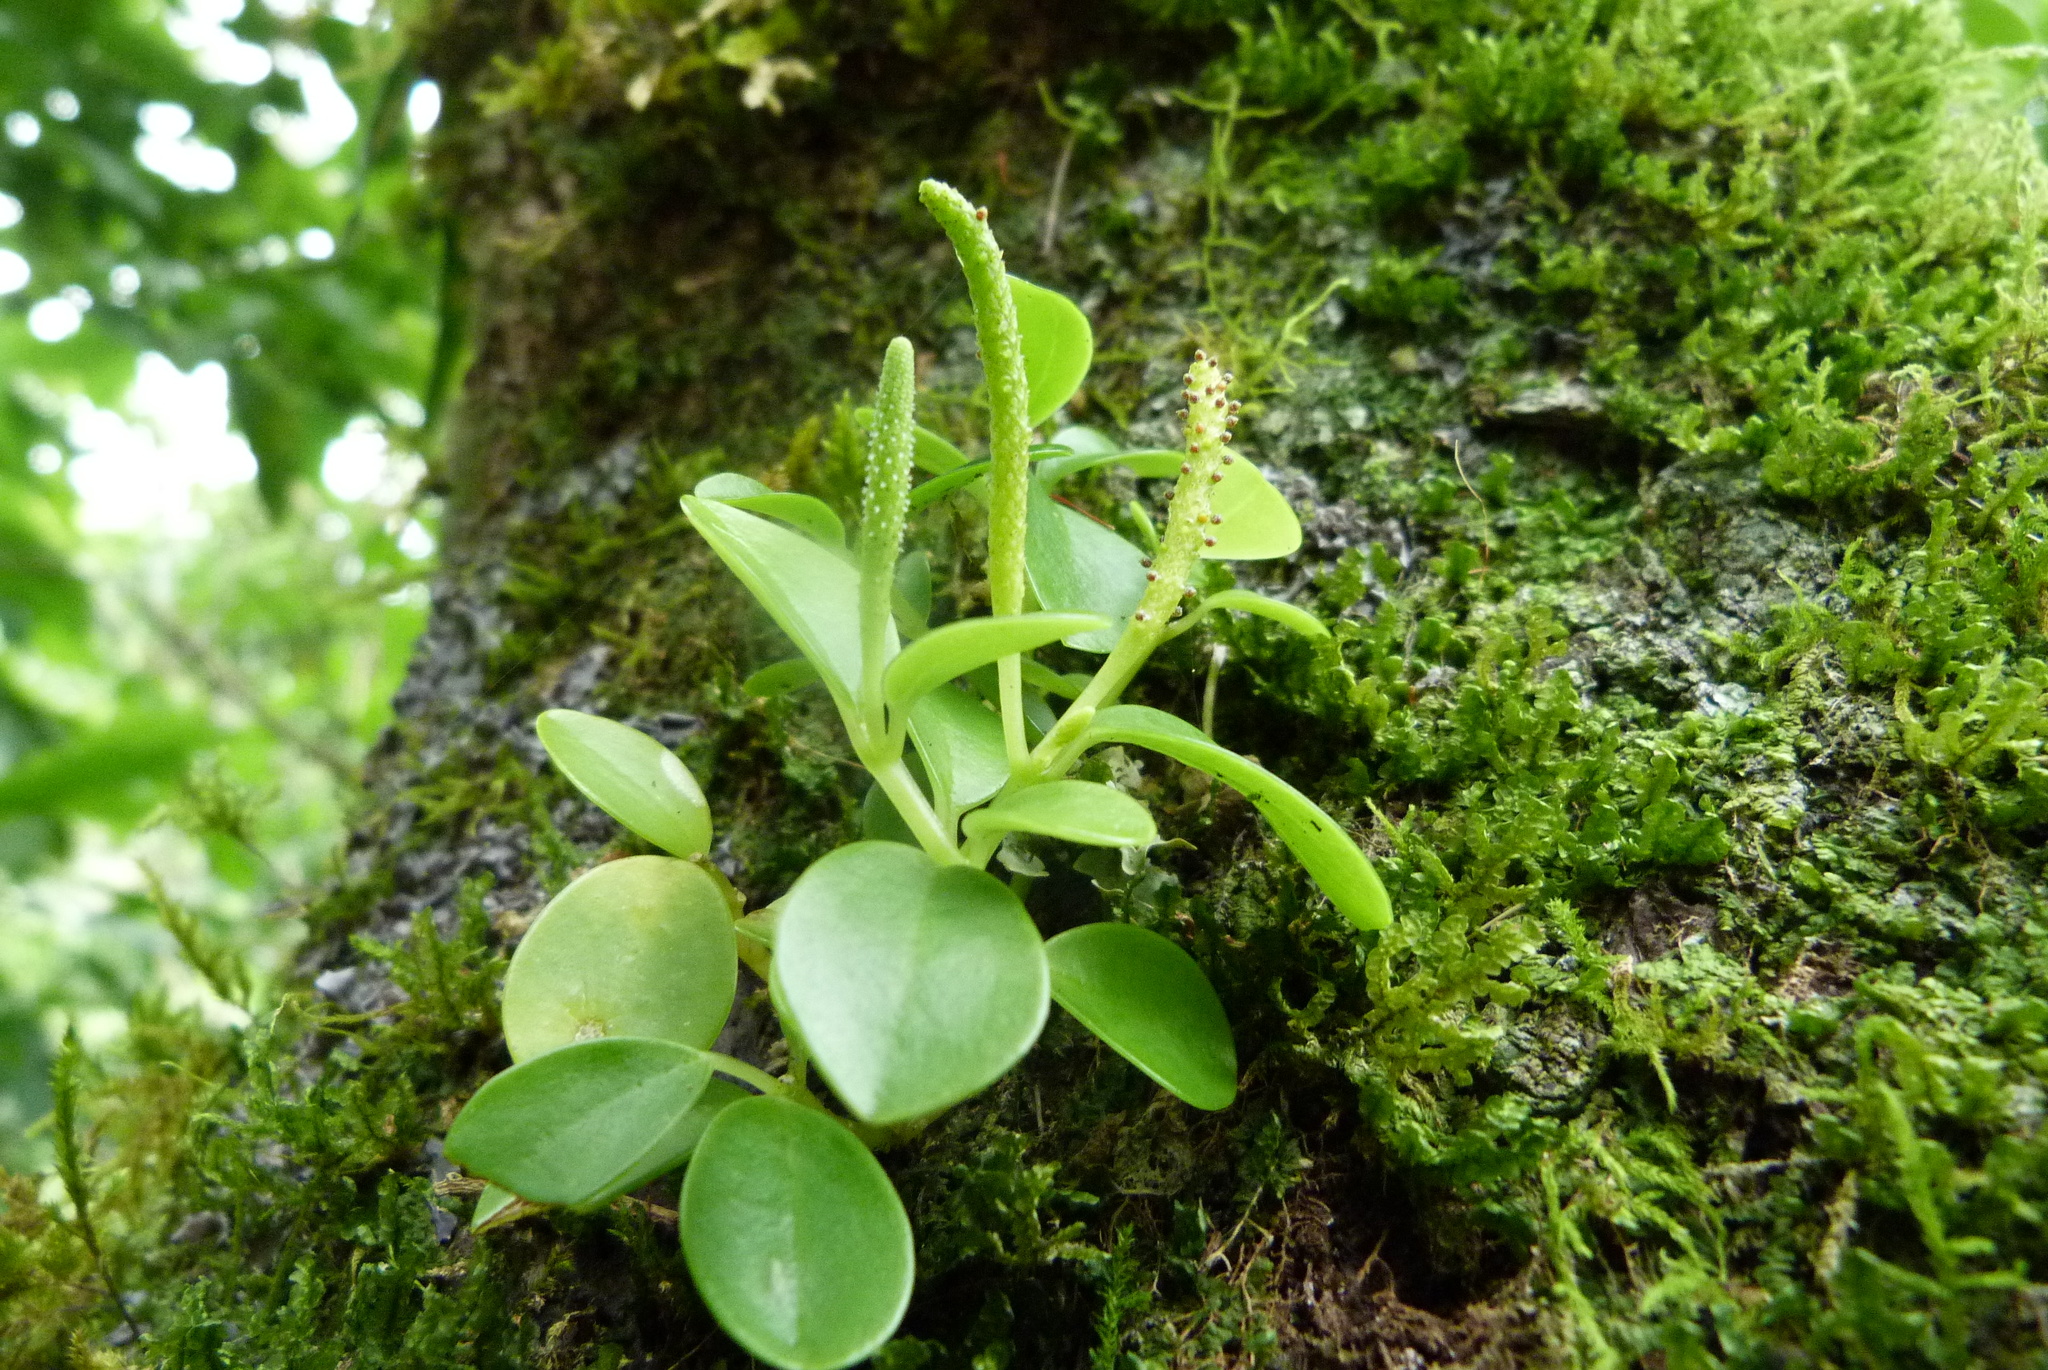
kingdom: Plantae
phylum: Tracheophyta
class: Magnoliopsida
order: Piperales
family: Piperaceae
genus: Peperomia
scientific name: Peperomia marchionensis
